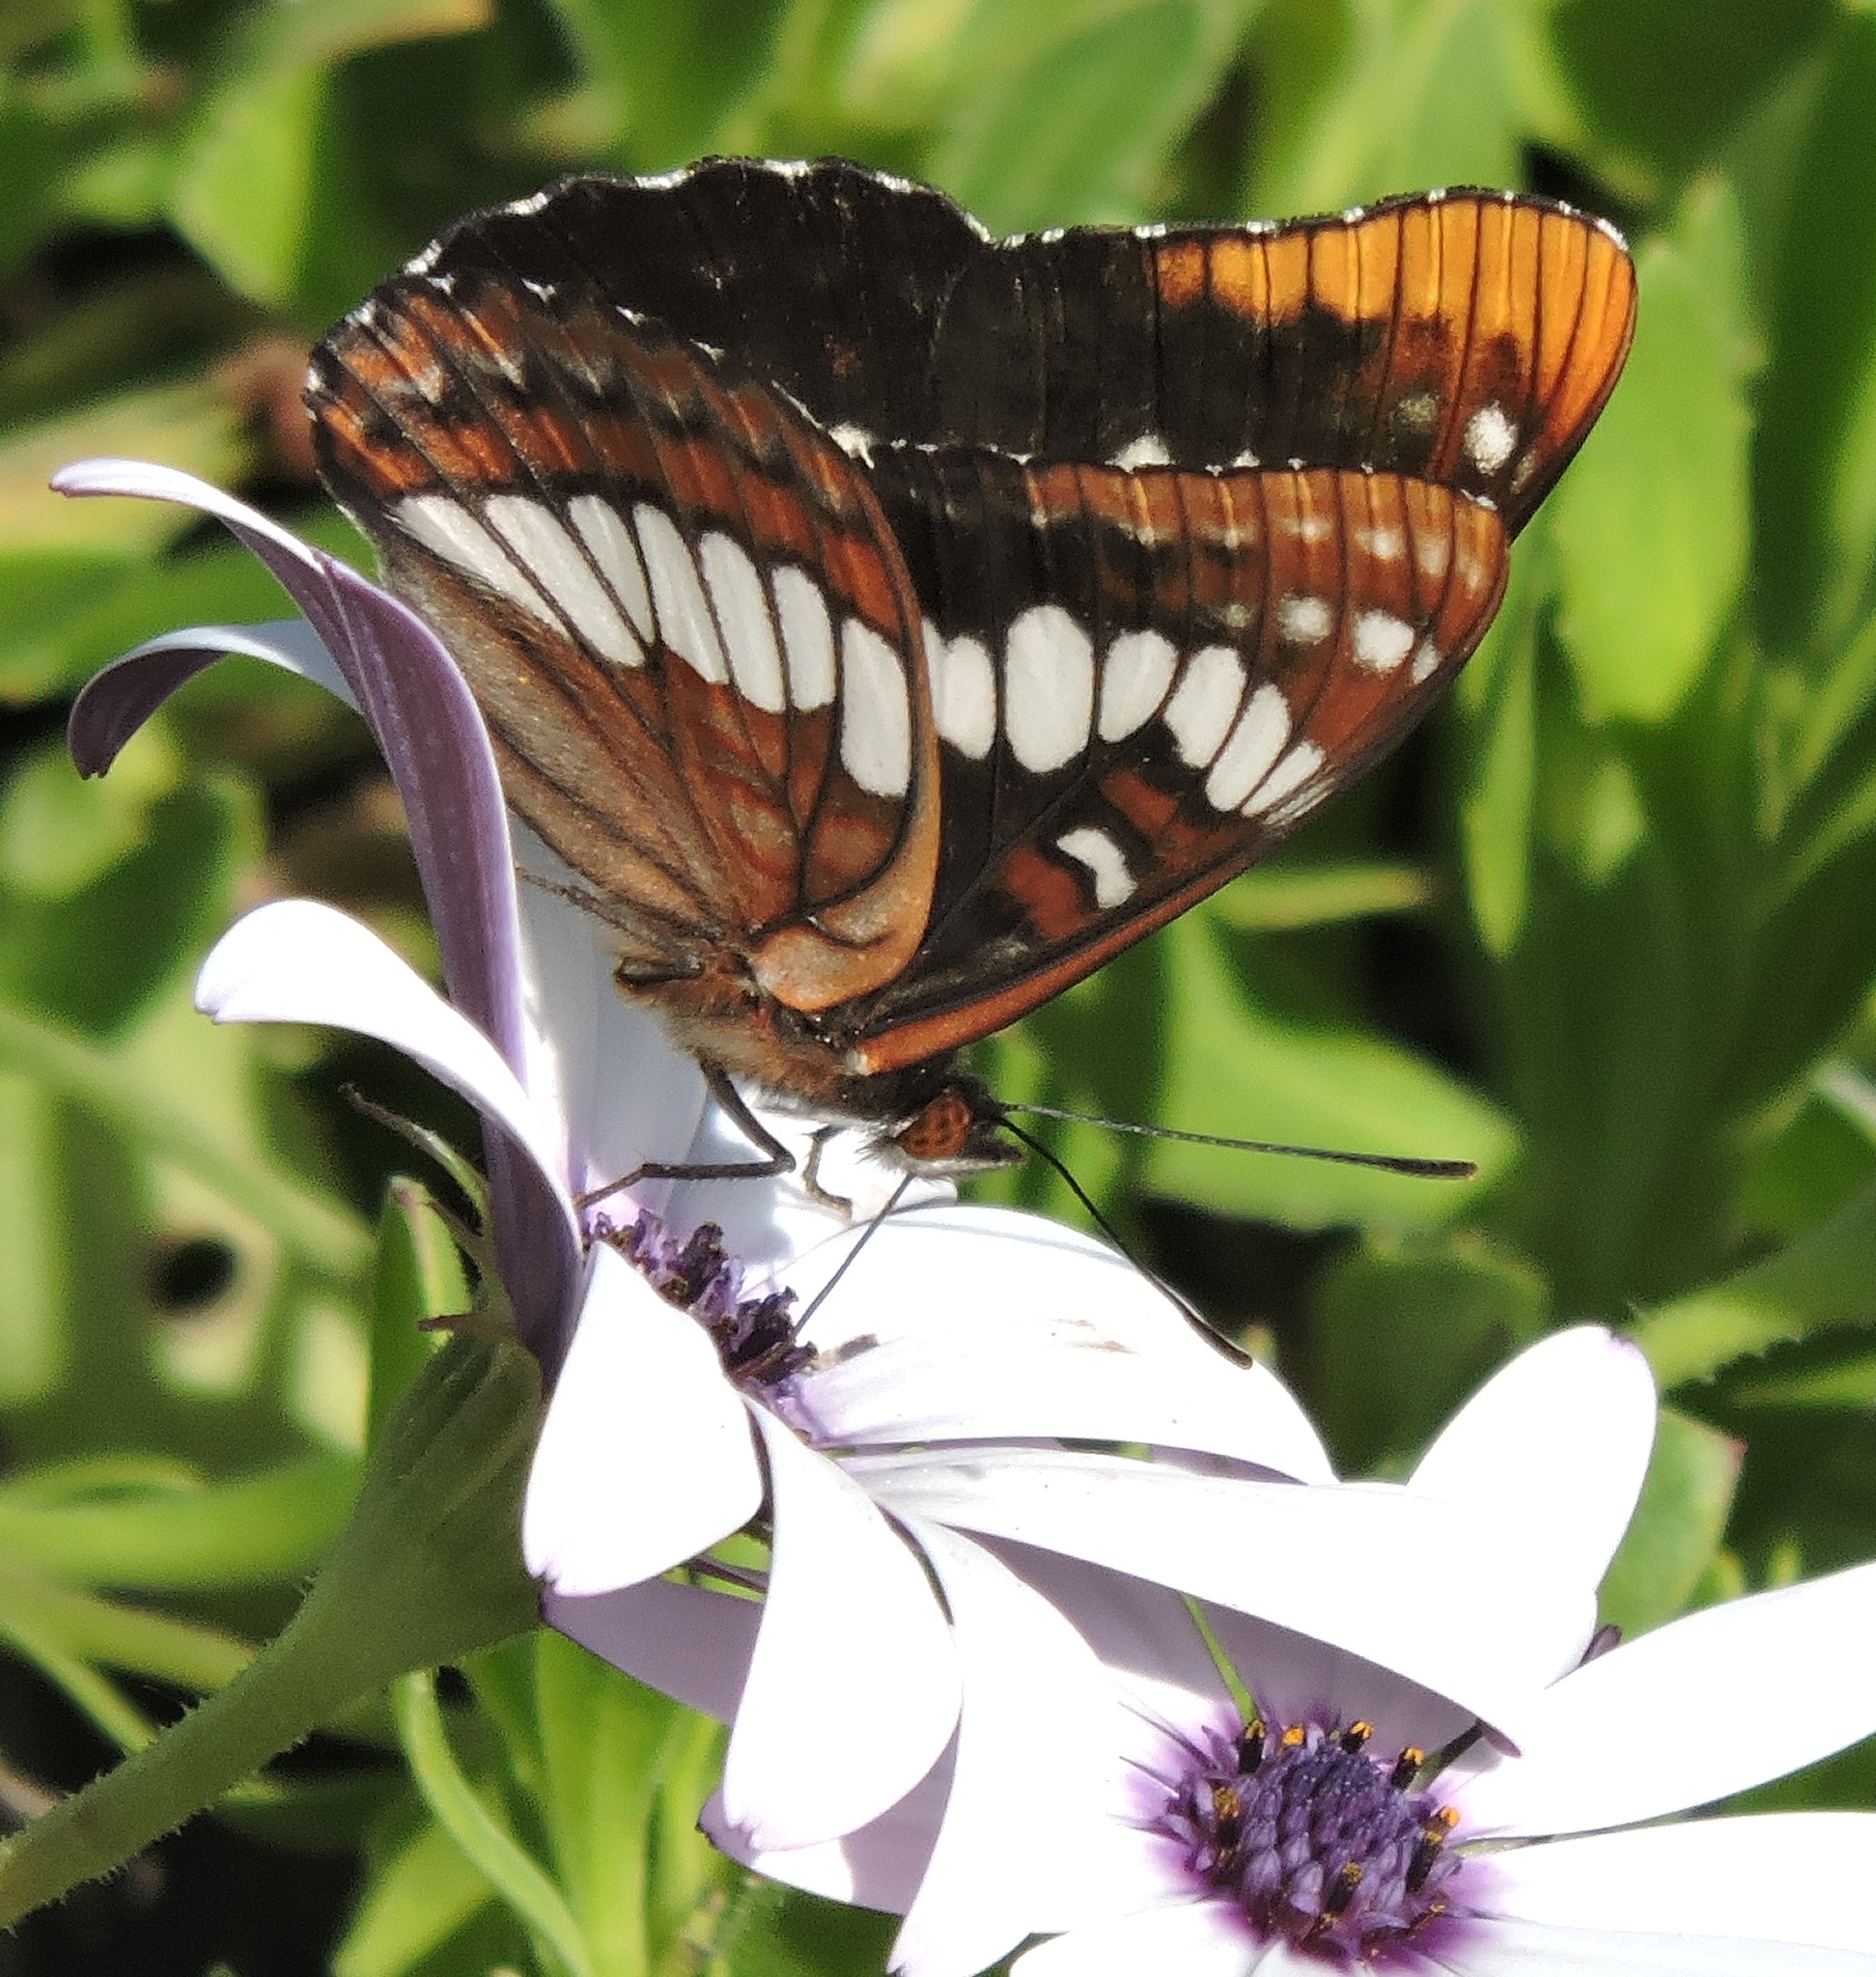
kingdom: Animalia
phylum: Arthropoda
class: Insecta
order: Lepidoptera
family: Nymphalidae
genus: Limenitis
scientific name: Limenitis lorquini
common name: Lorquin's admiral
